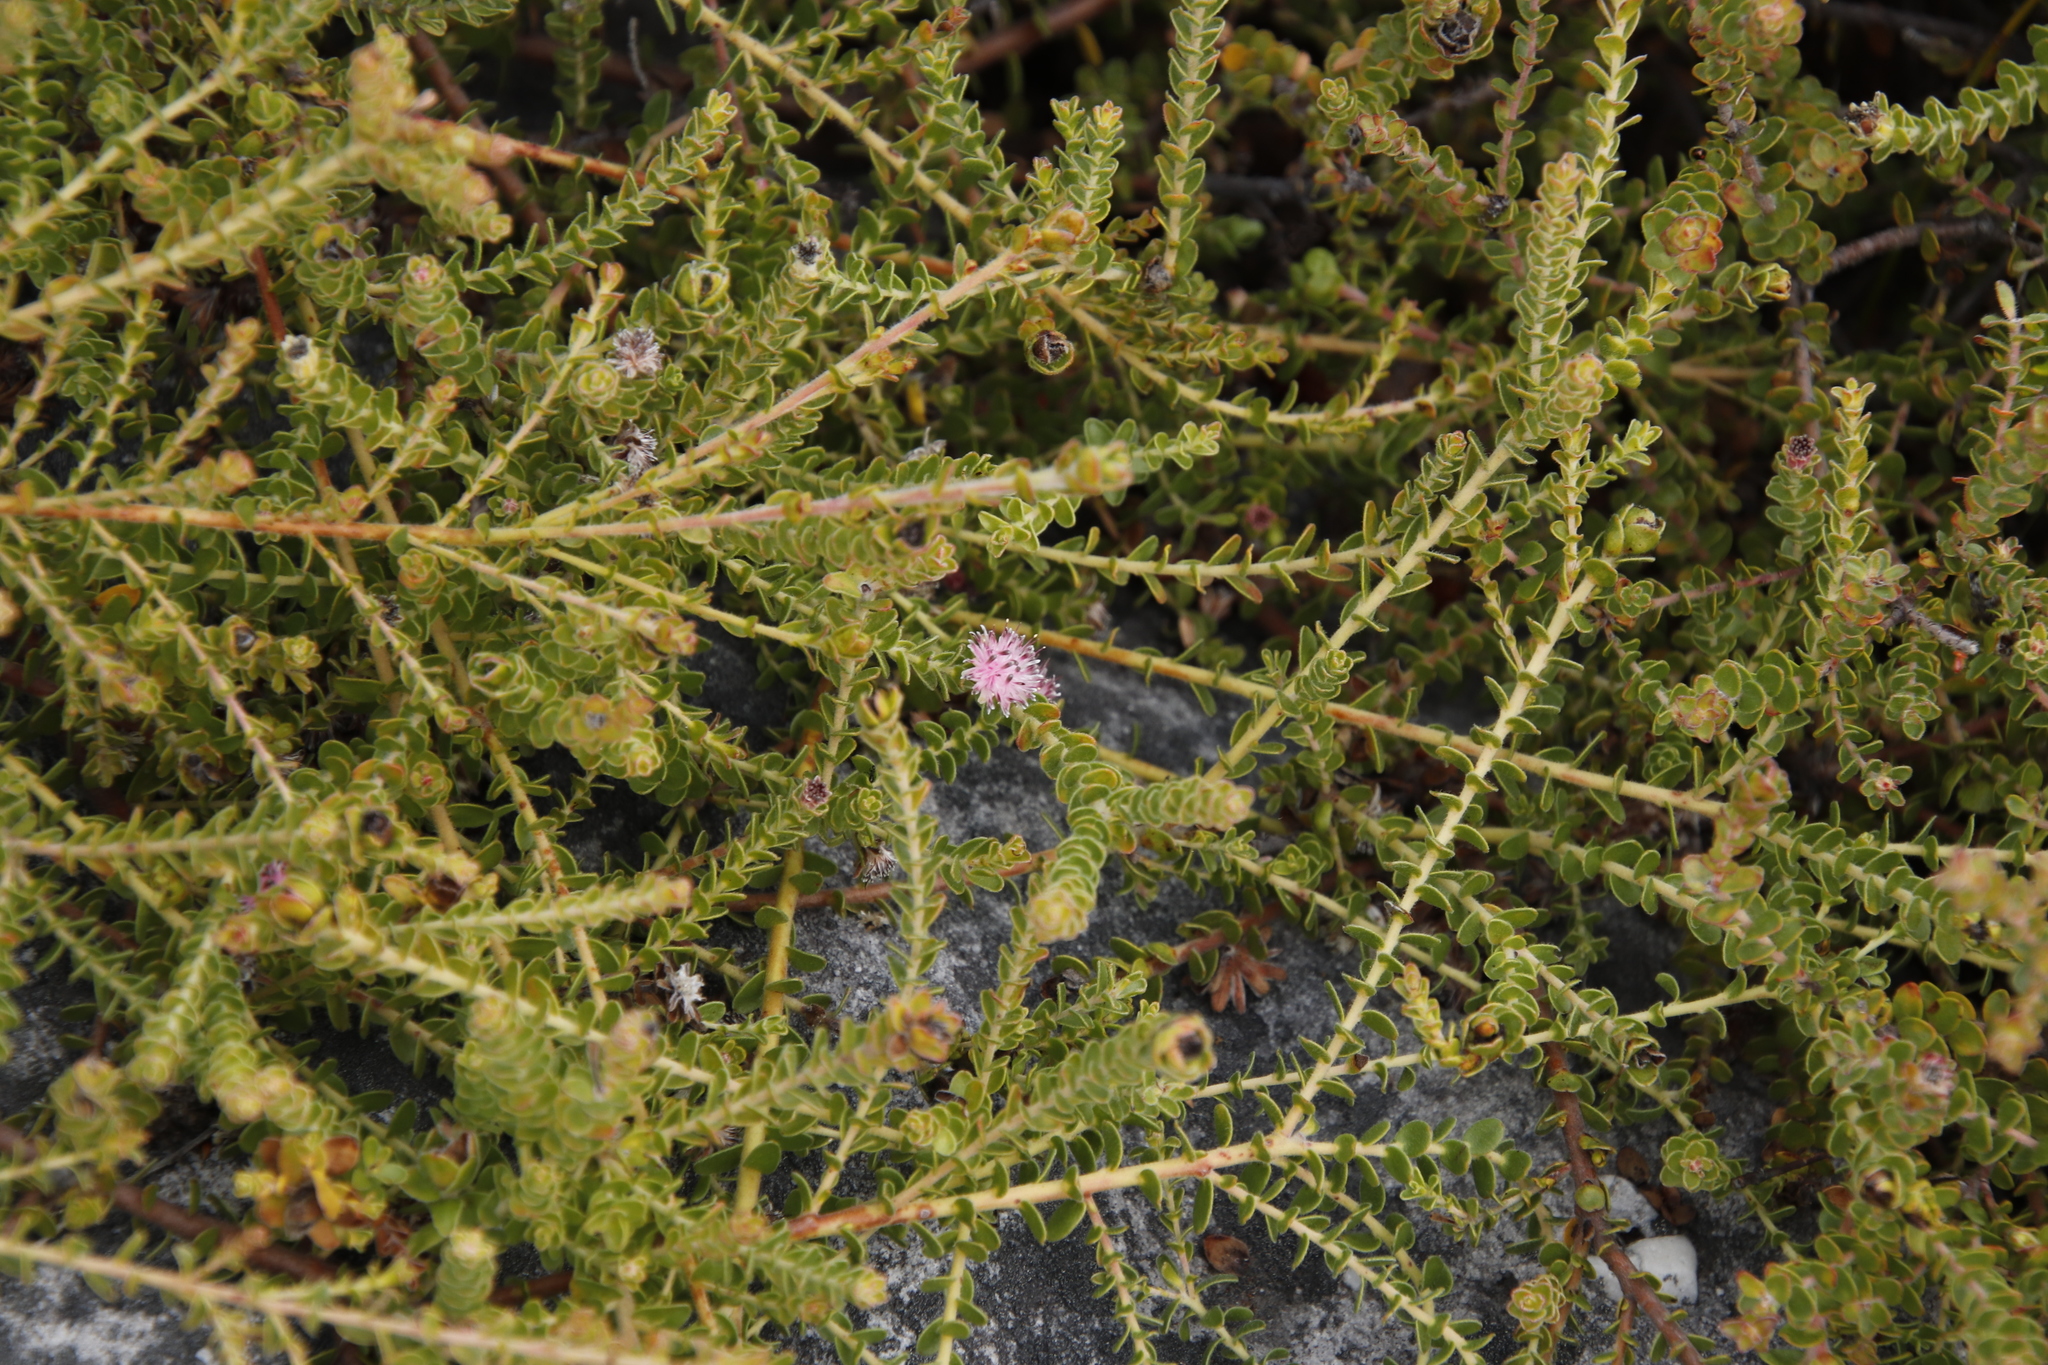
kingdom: Plantae
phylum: Tracheophyta
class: Magnoliopsida
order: Proteales
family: Proteaceae
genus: Diastella
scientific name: Diastella divaricata
